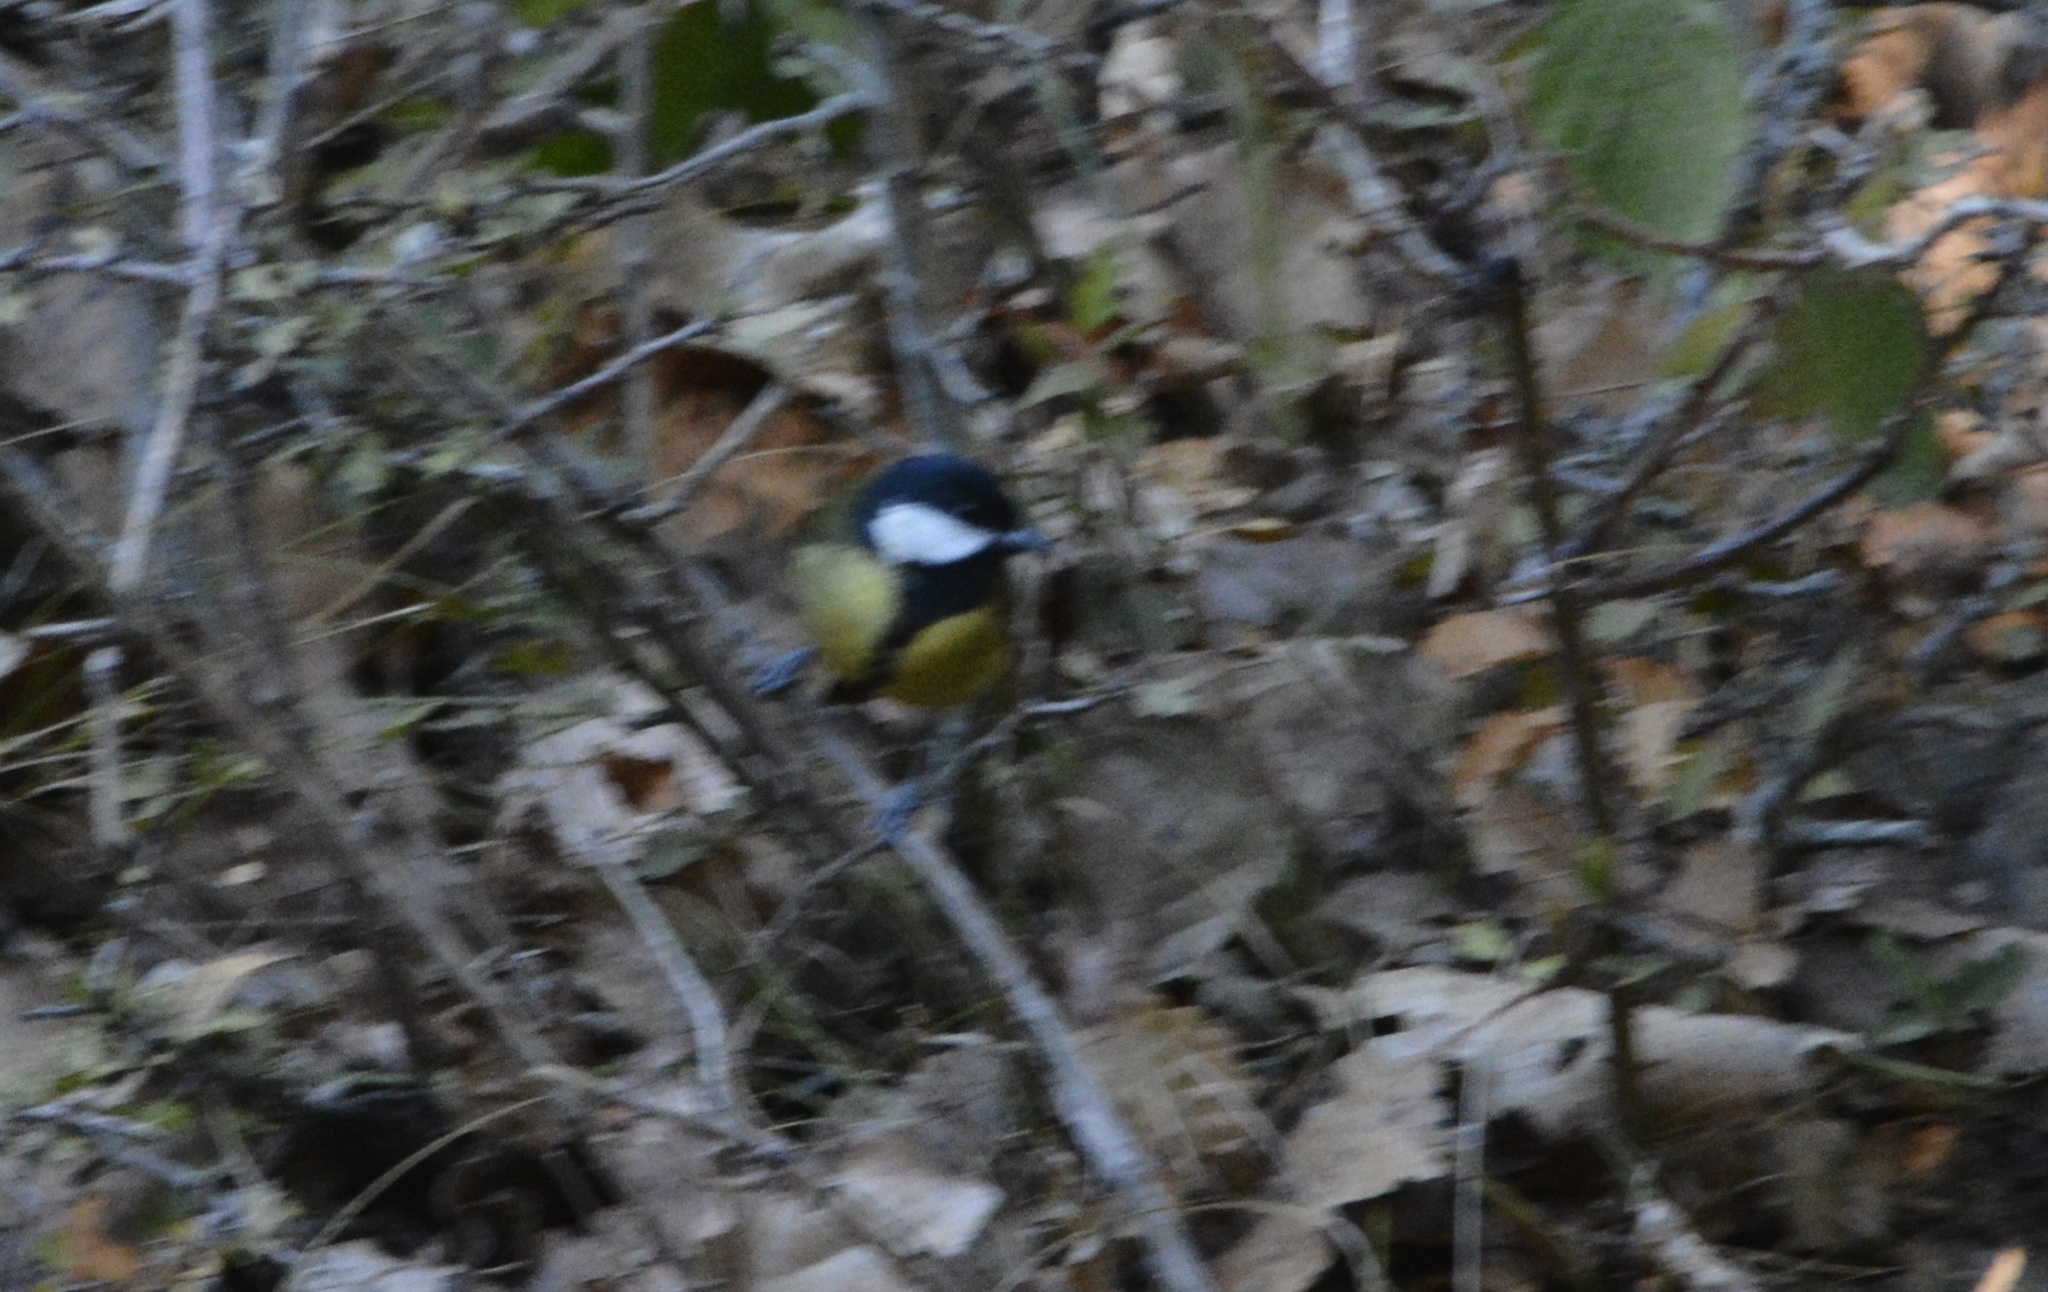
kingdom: Animalia
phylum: Chordata
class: Aves
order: Passeriformes
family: Paridae
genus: Parus
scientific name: Parus major
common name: Great tit
